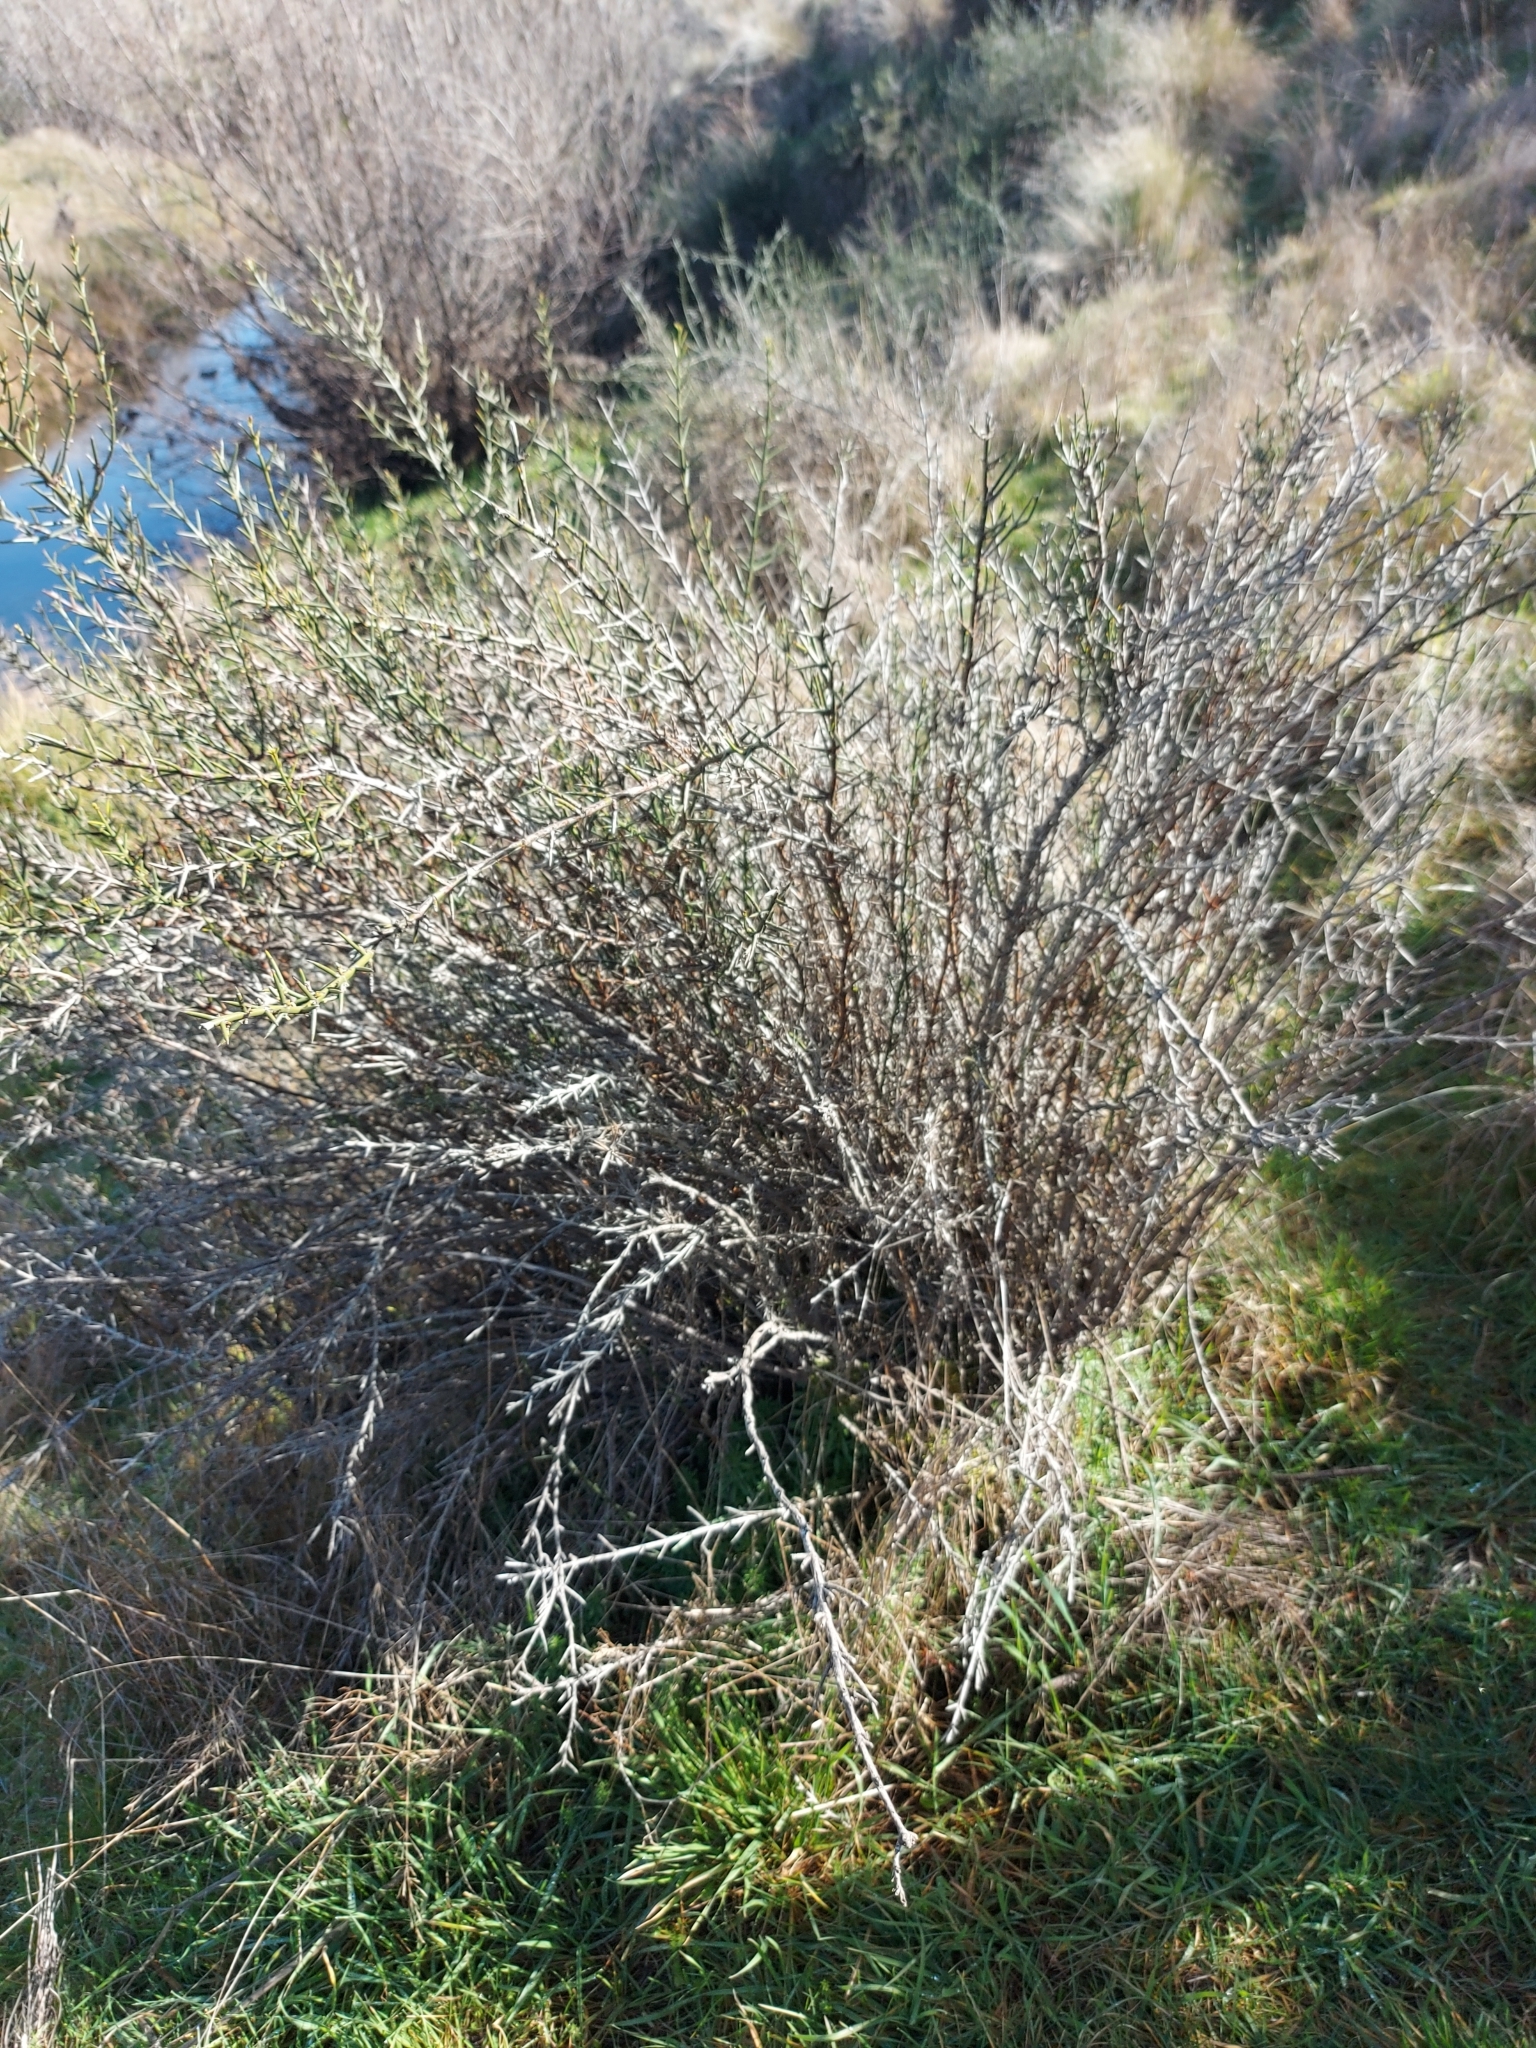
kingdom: Plantae
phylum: Tracheophyta
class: Magnoliopsida
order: Rosales
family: Rhamnaceae
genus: Discaria
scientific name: Discaria pubescens
